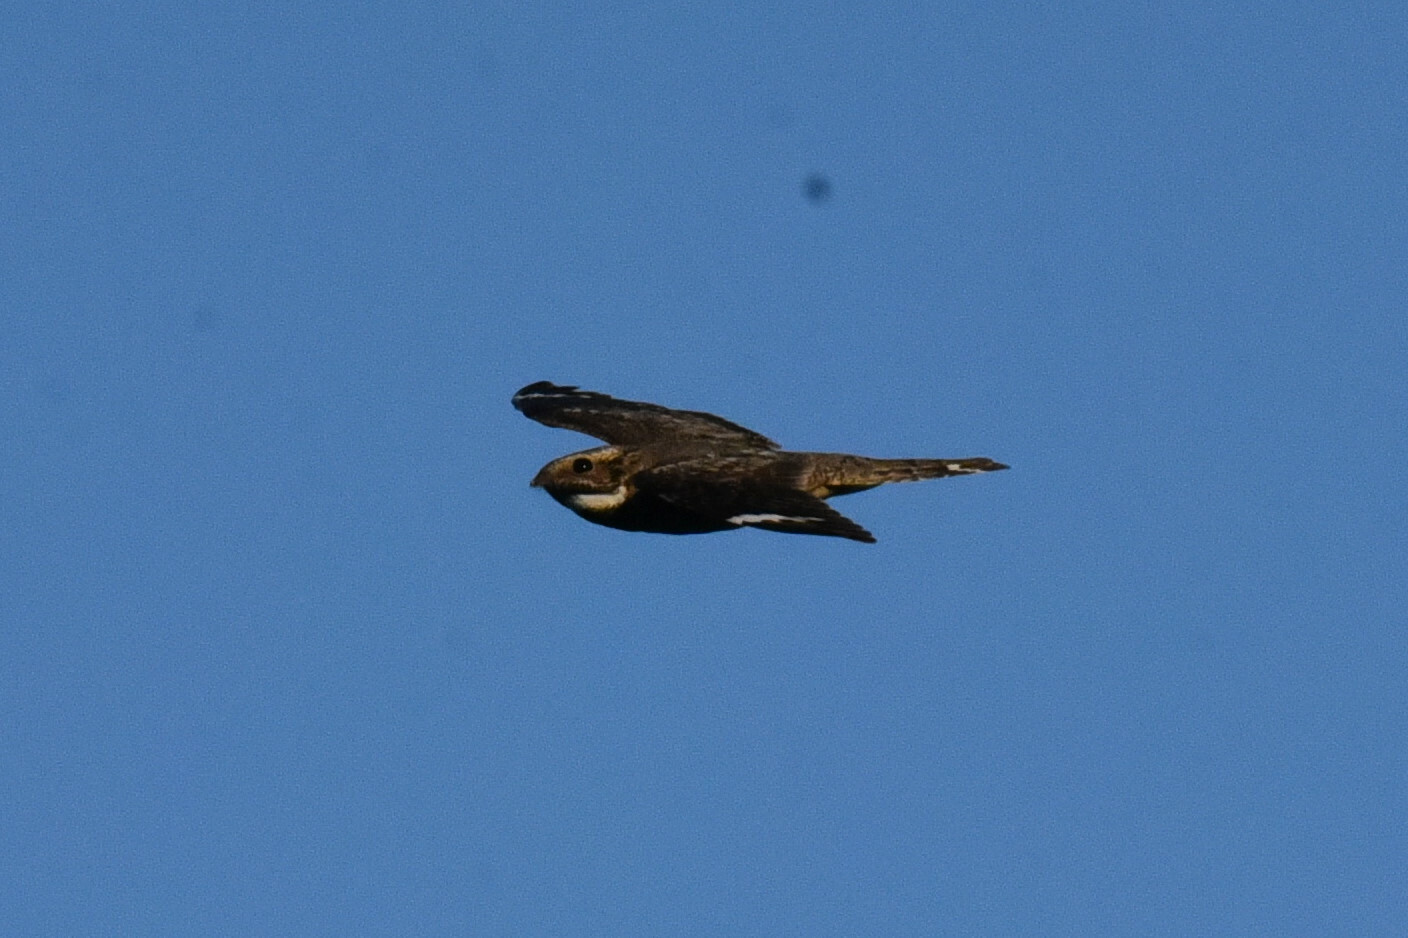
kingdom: Animalia
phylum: Chordata
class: Aves
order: Caprimulgiformes
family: Caprimulgidae
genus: Chordeiles
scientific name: Chordeiles acutipennis
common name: Lesser nighthawk
